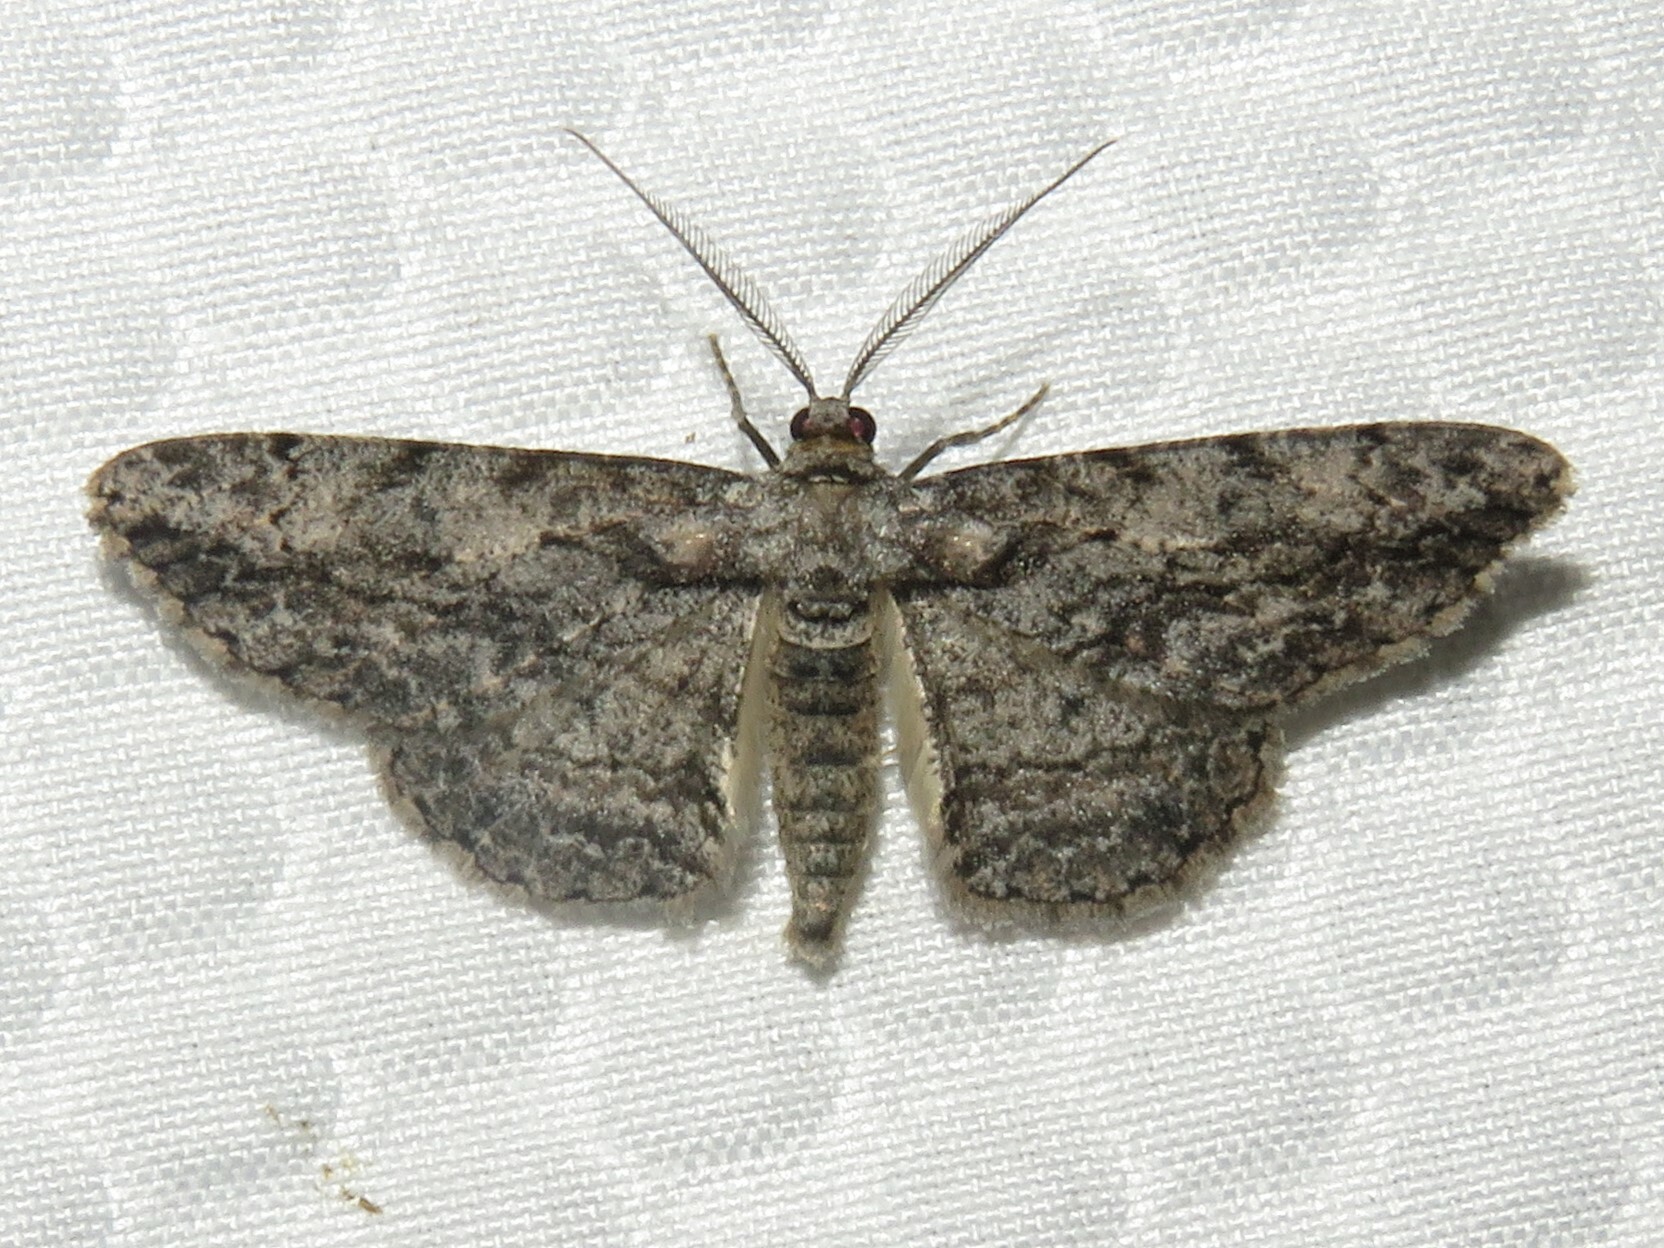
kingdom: Animalia
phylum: Arthropoda
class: Insecta
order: Lepidoptera
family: Geometridae
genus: Anavitrinella
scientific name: Anavitrinella pampinaria
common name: Common gray
